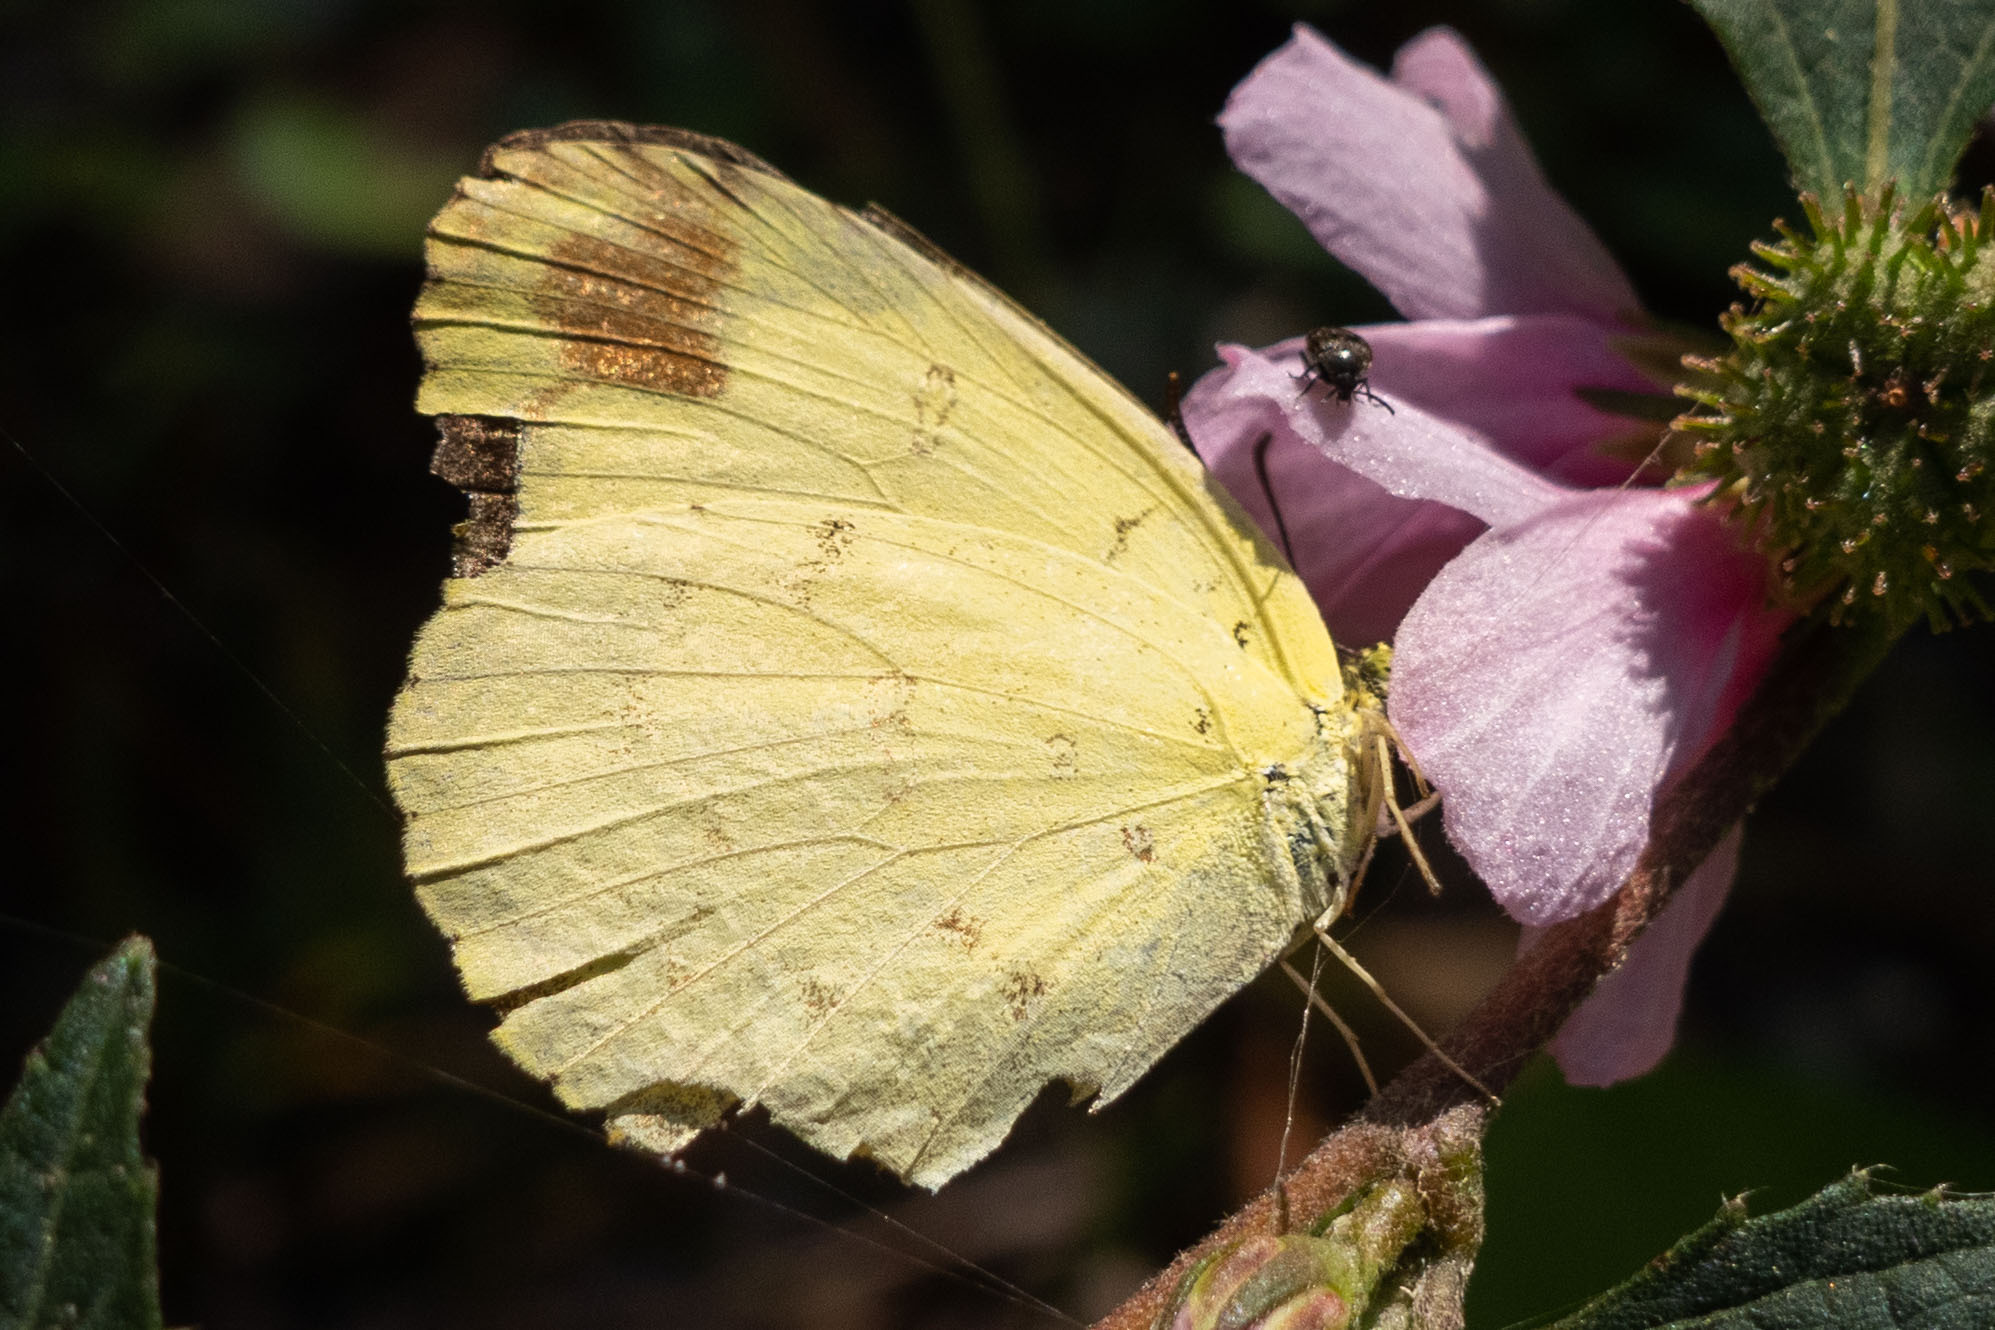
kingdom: Animalia
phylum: Arthropoda
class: Insecta
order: Lepidoptera
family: Pieridae
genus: Eurema
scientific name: Eurema hecabe
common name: Pale grass yellow
